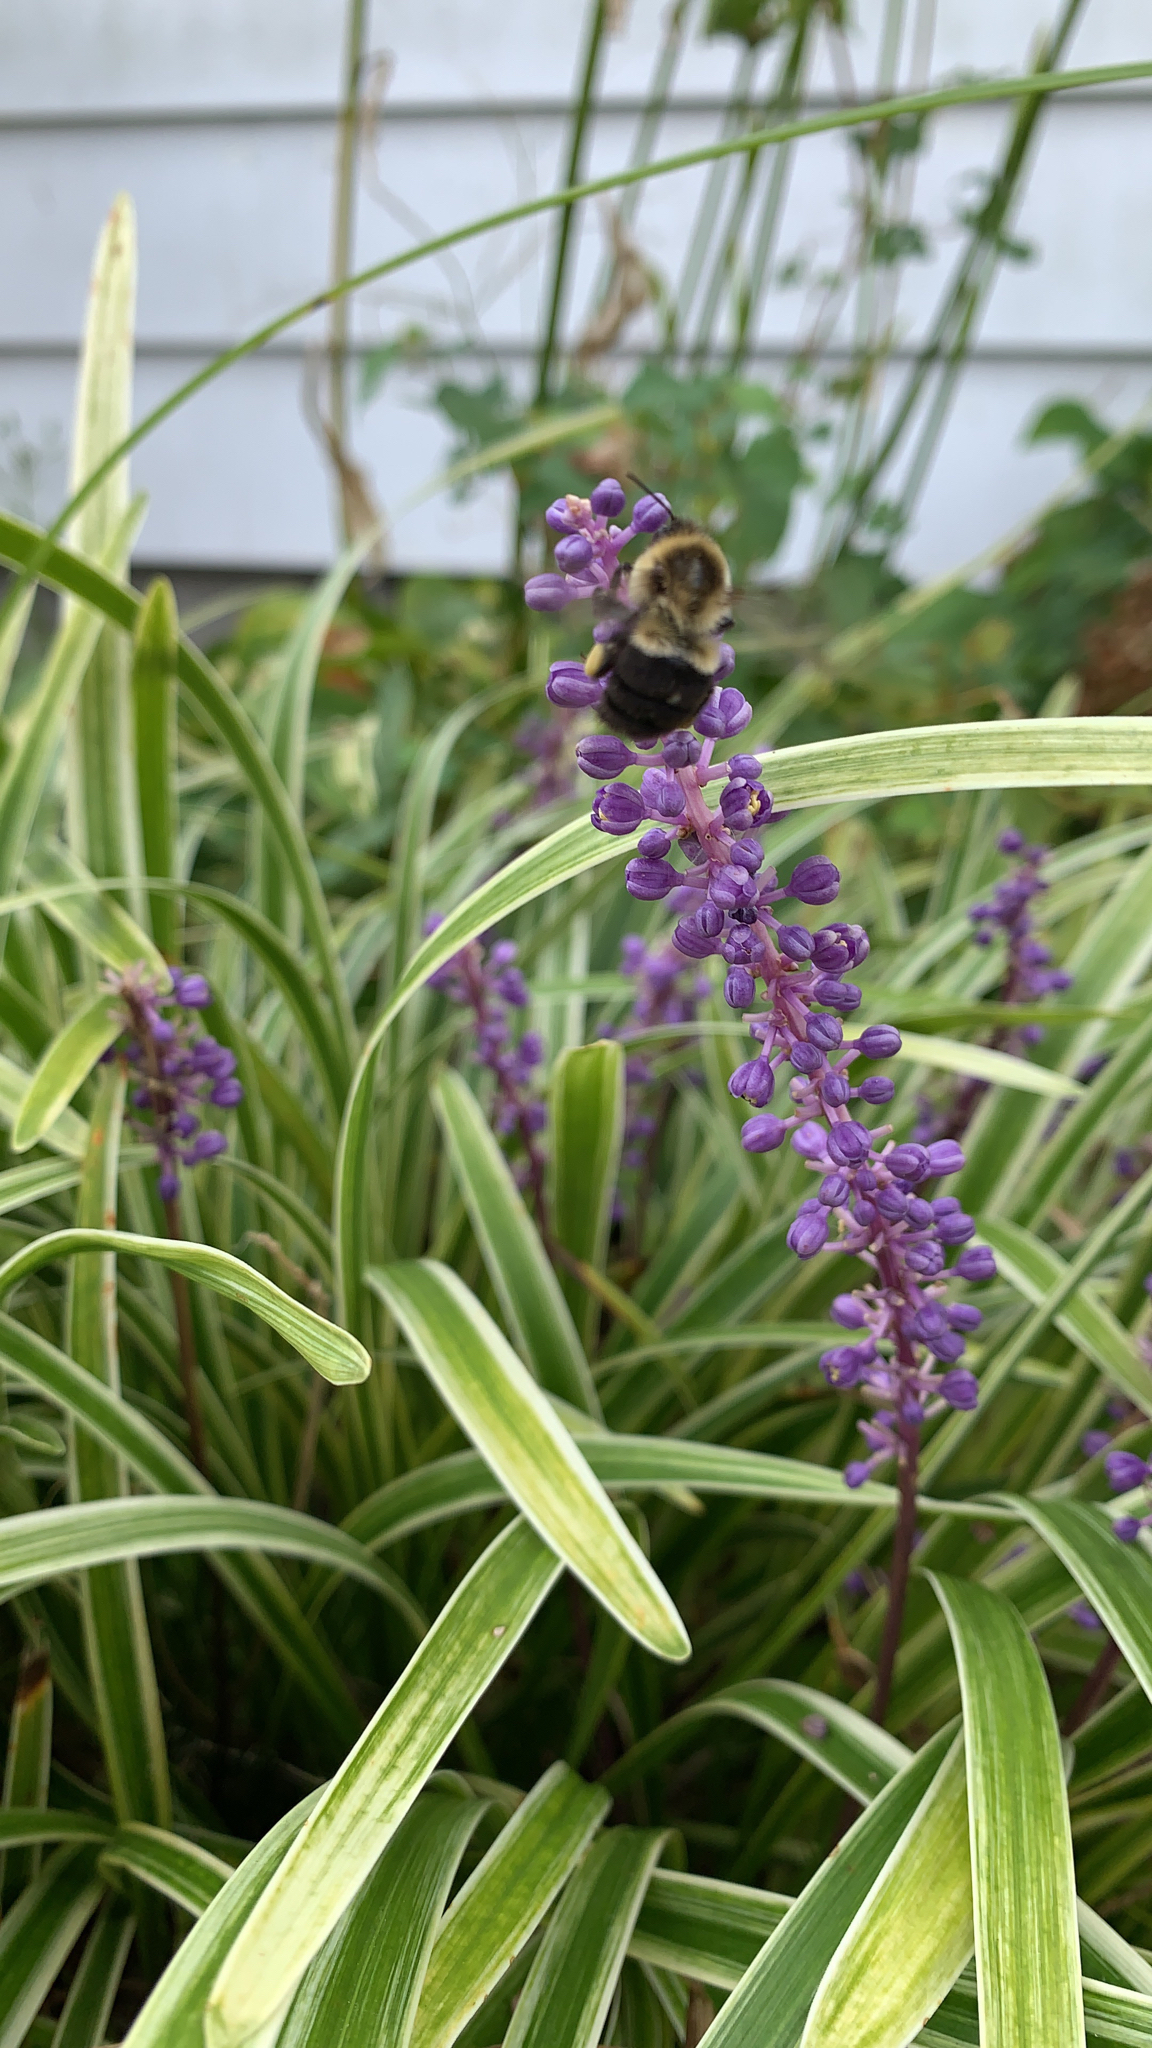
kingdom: Animalia
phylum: Arthropoda
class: Insecta
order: Hymenoptera
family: Apidae
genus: Bombus
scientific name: Bombus impatiens
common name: Common eastern bumble bee
